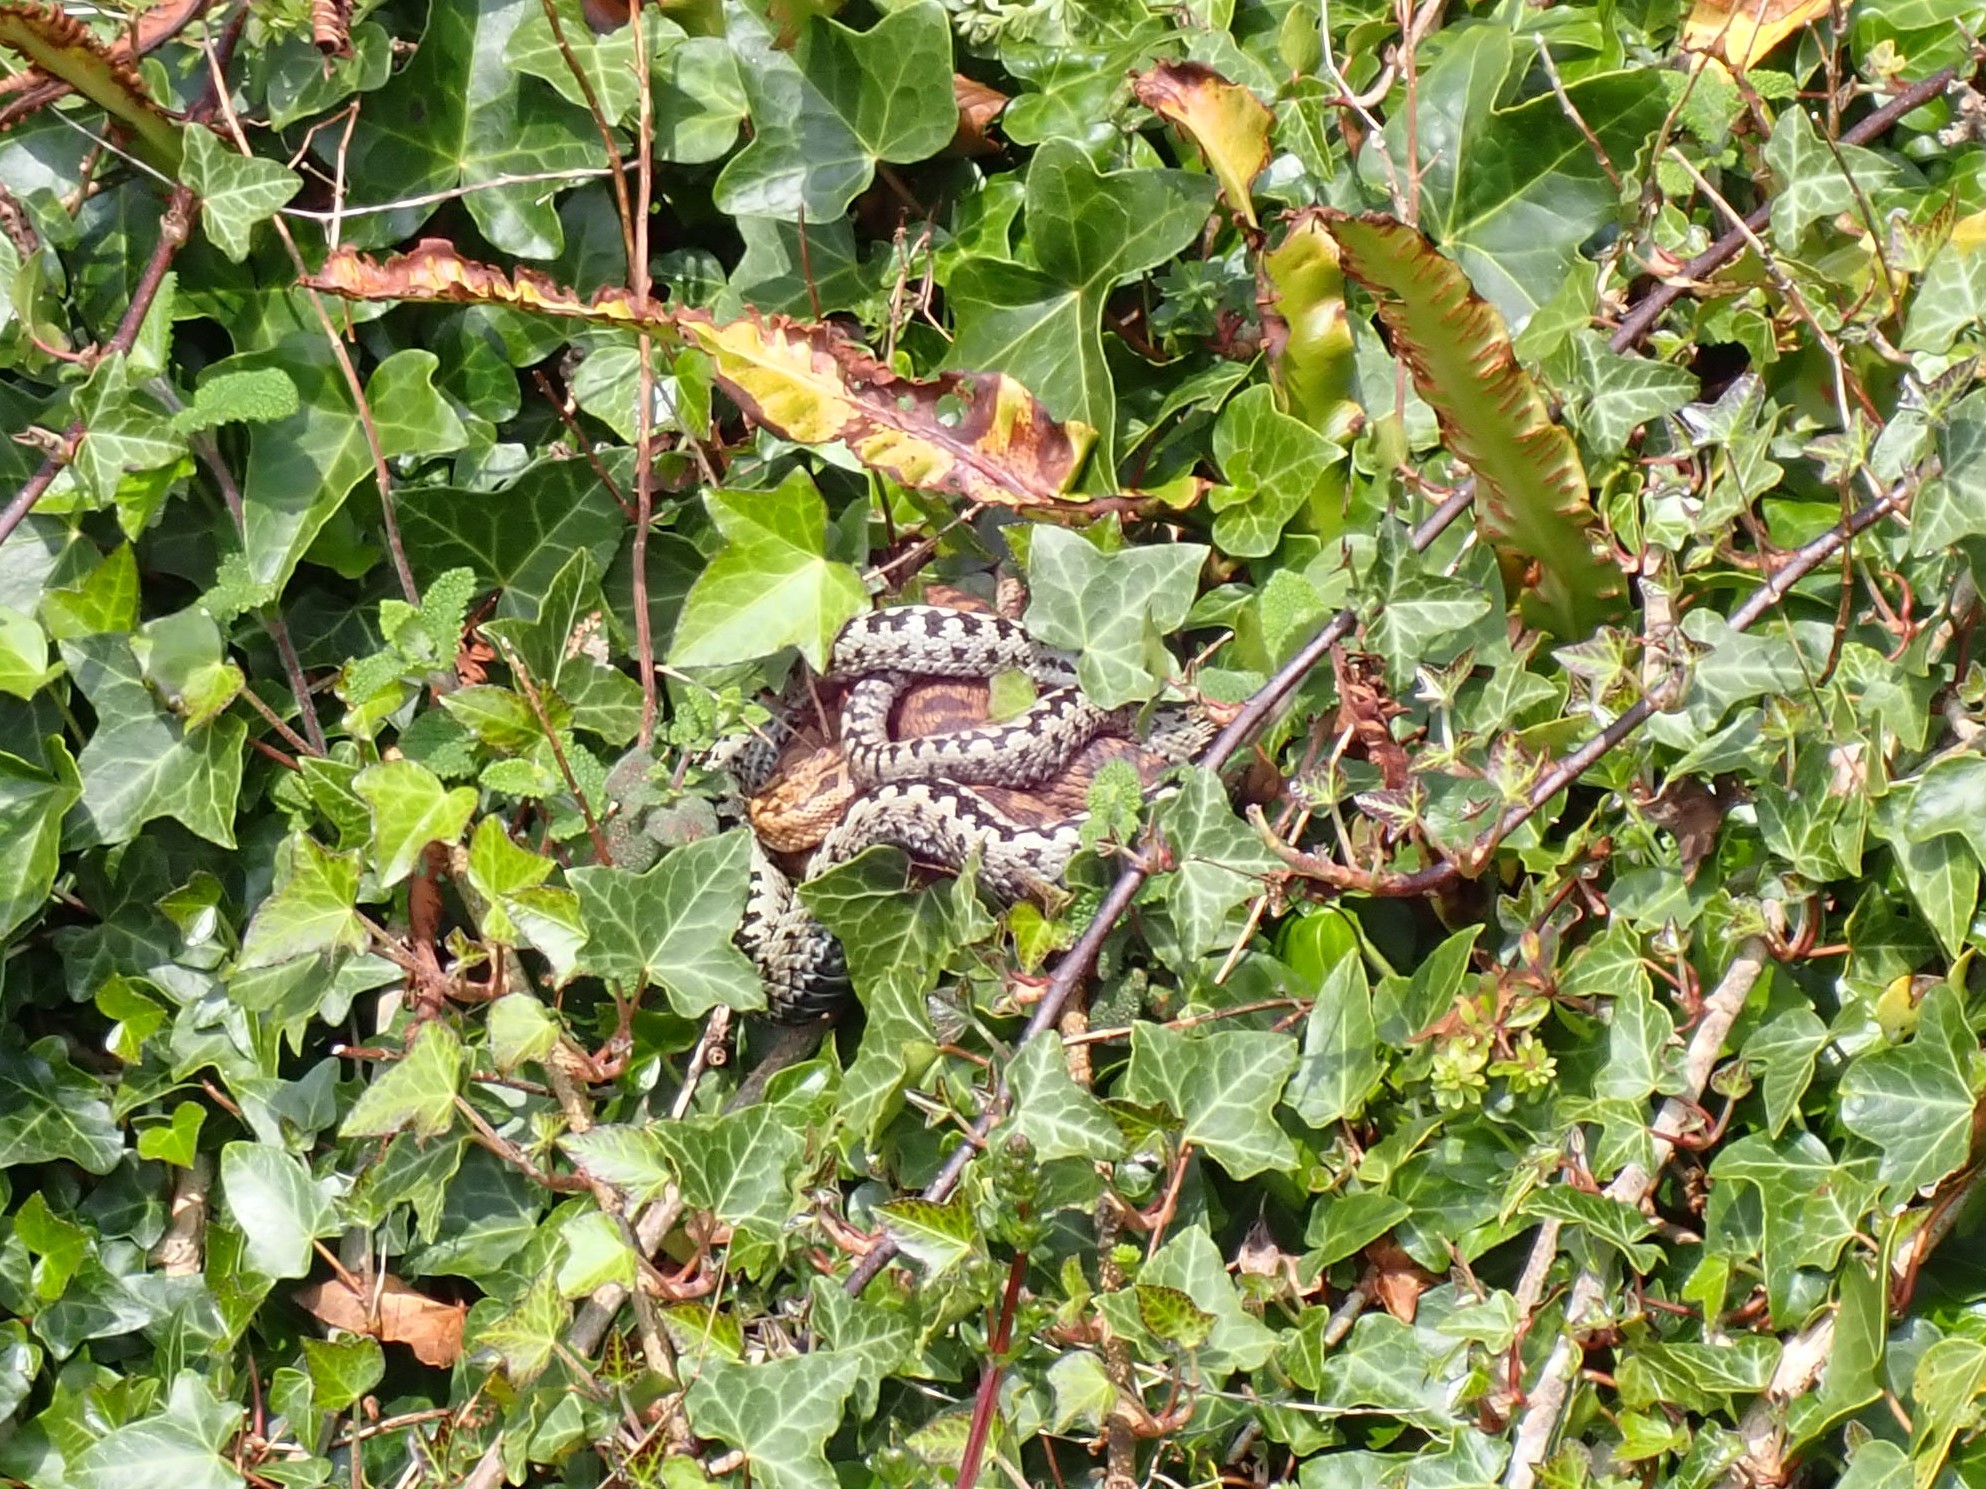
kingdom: Animalia
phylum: Chordata
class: Squamata
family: Viperidae
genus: Vipera
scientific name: Vipera berus
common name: Adder
